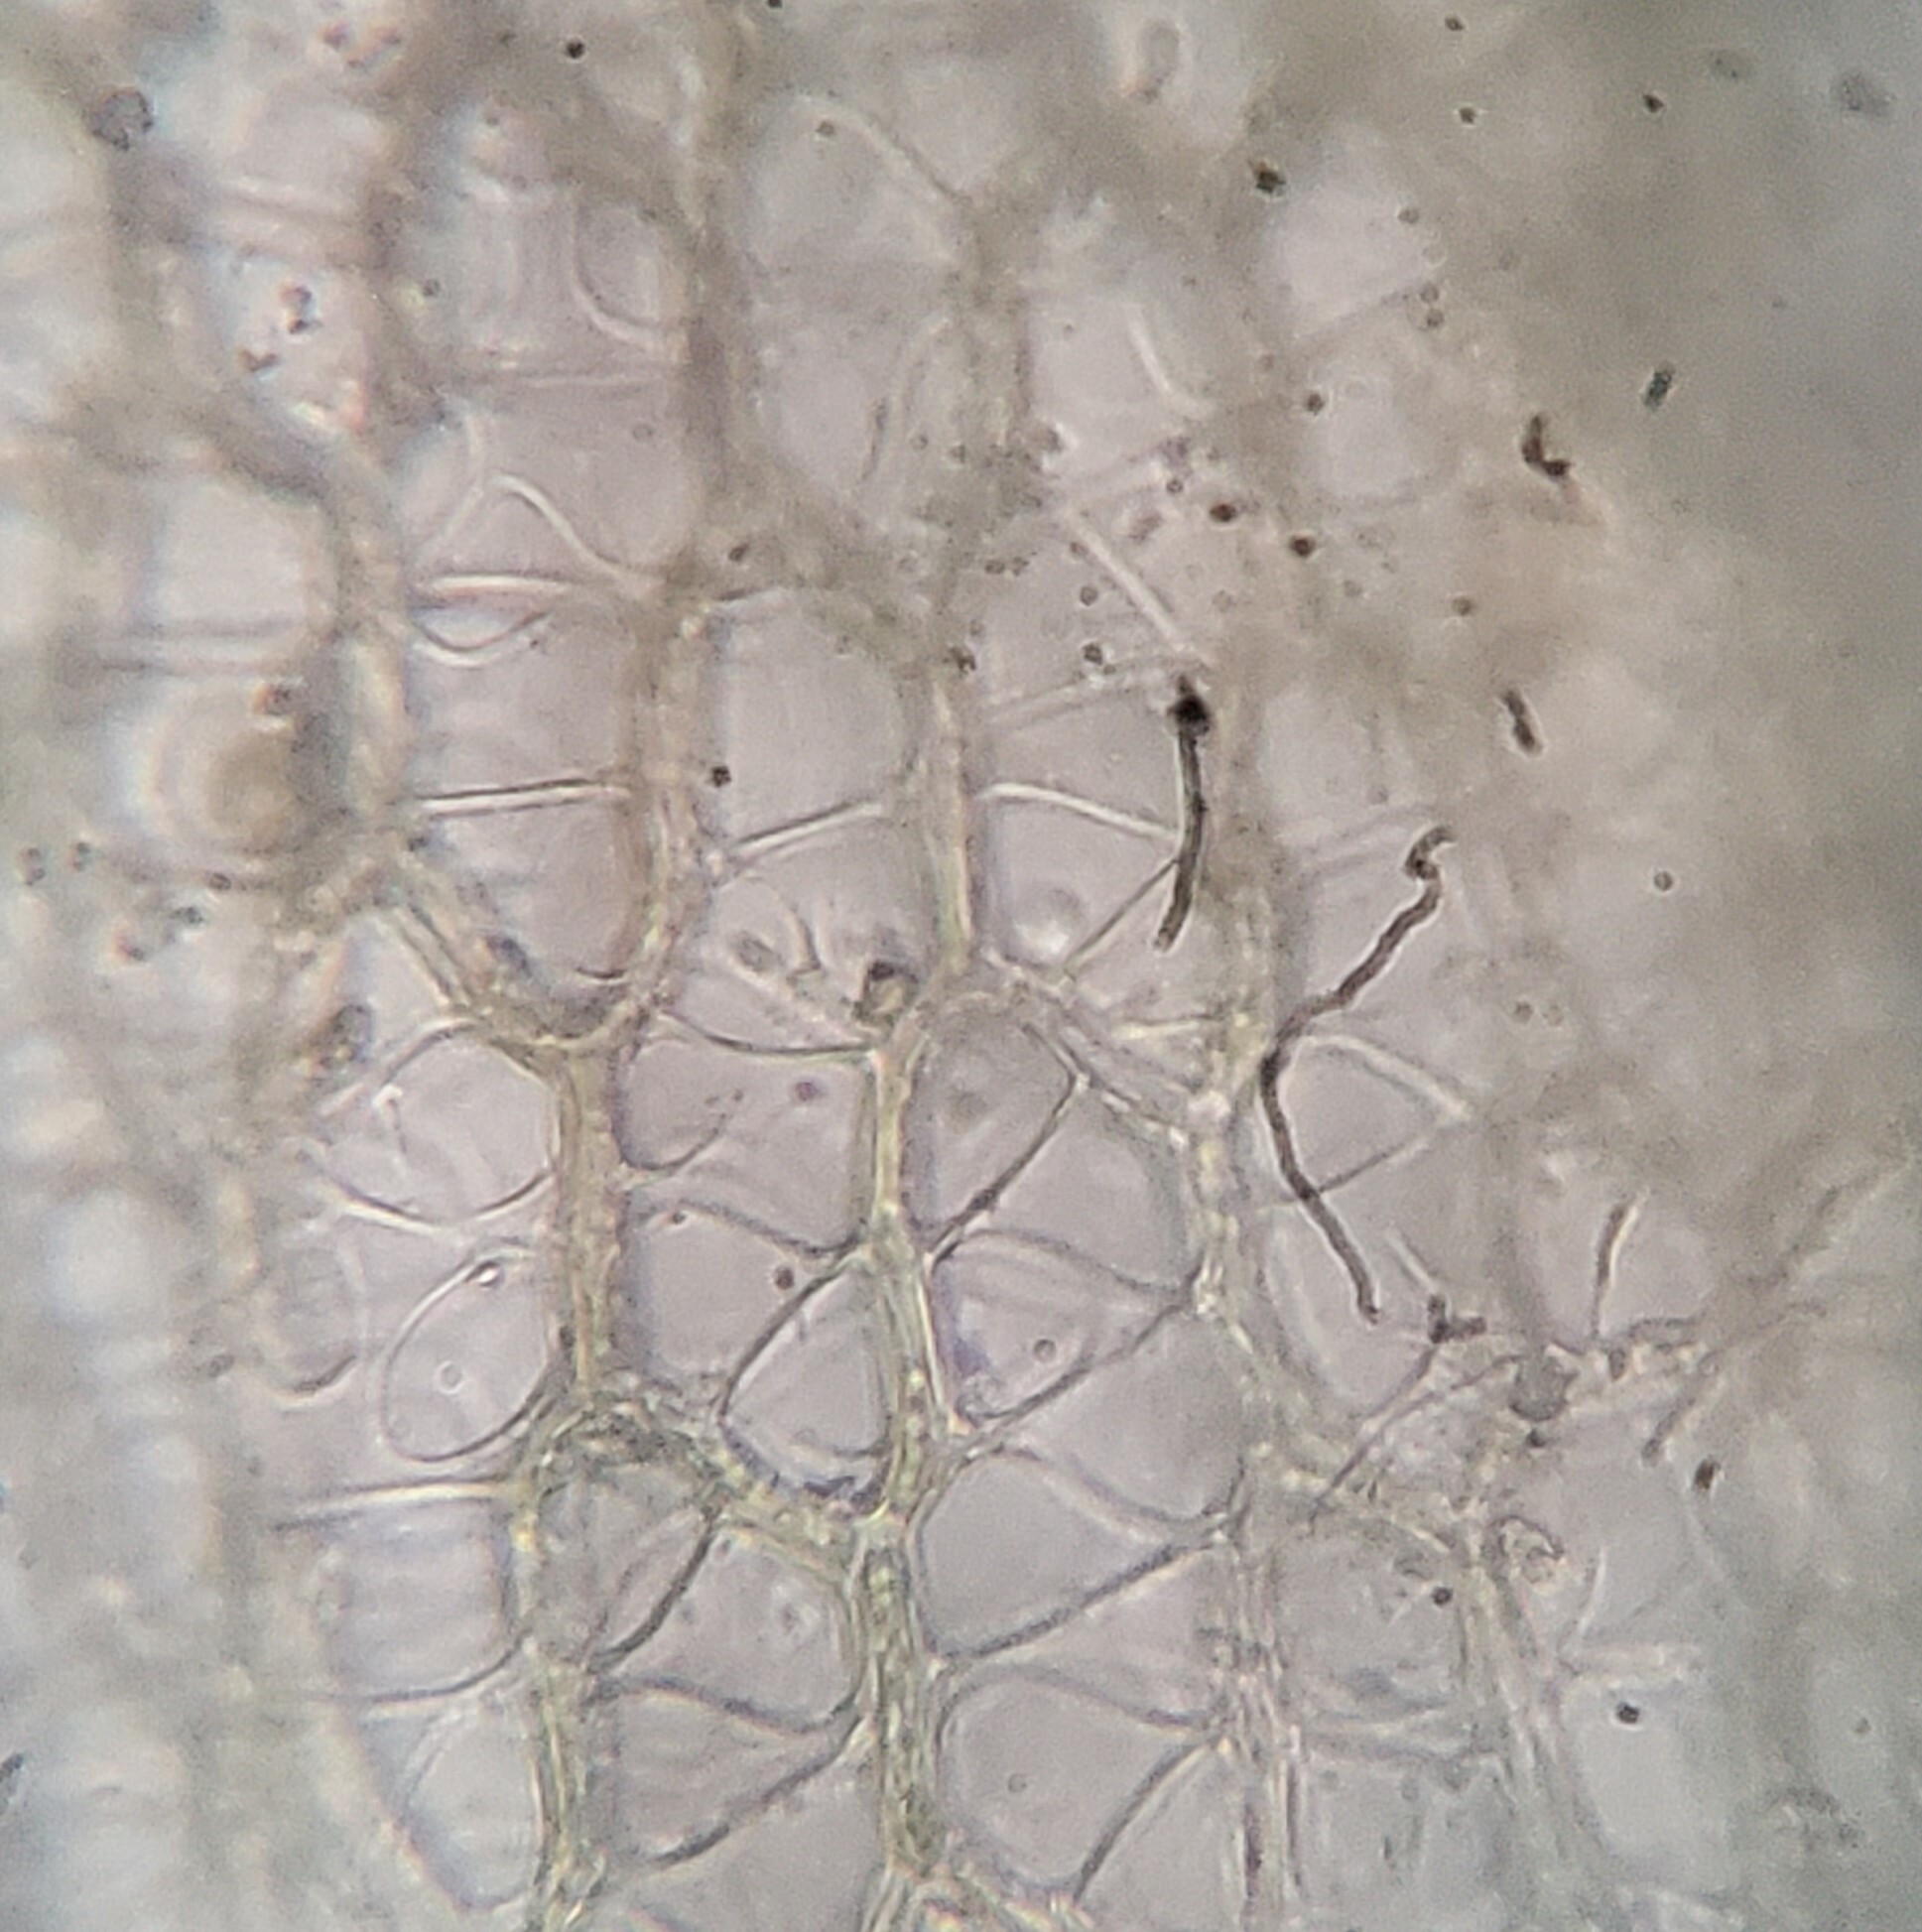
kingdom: Plantae
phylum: Bryophyta
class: Sphagnopsida
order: Sphagnales
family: Sphagnaceae
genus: Sphagnum
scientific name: Sphagnum fimbriatum
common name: Fringed peat moss
